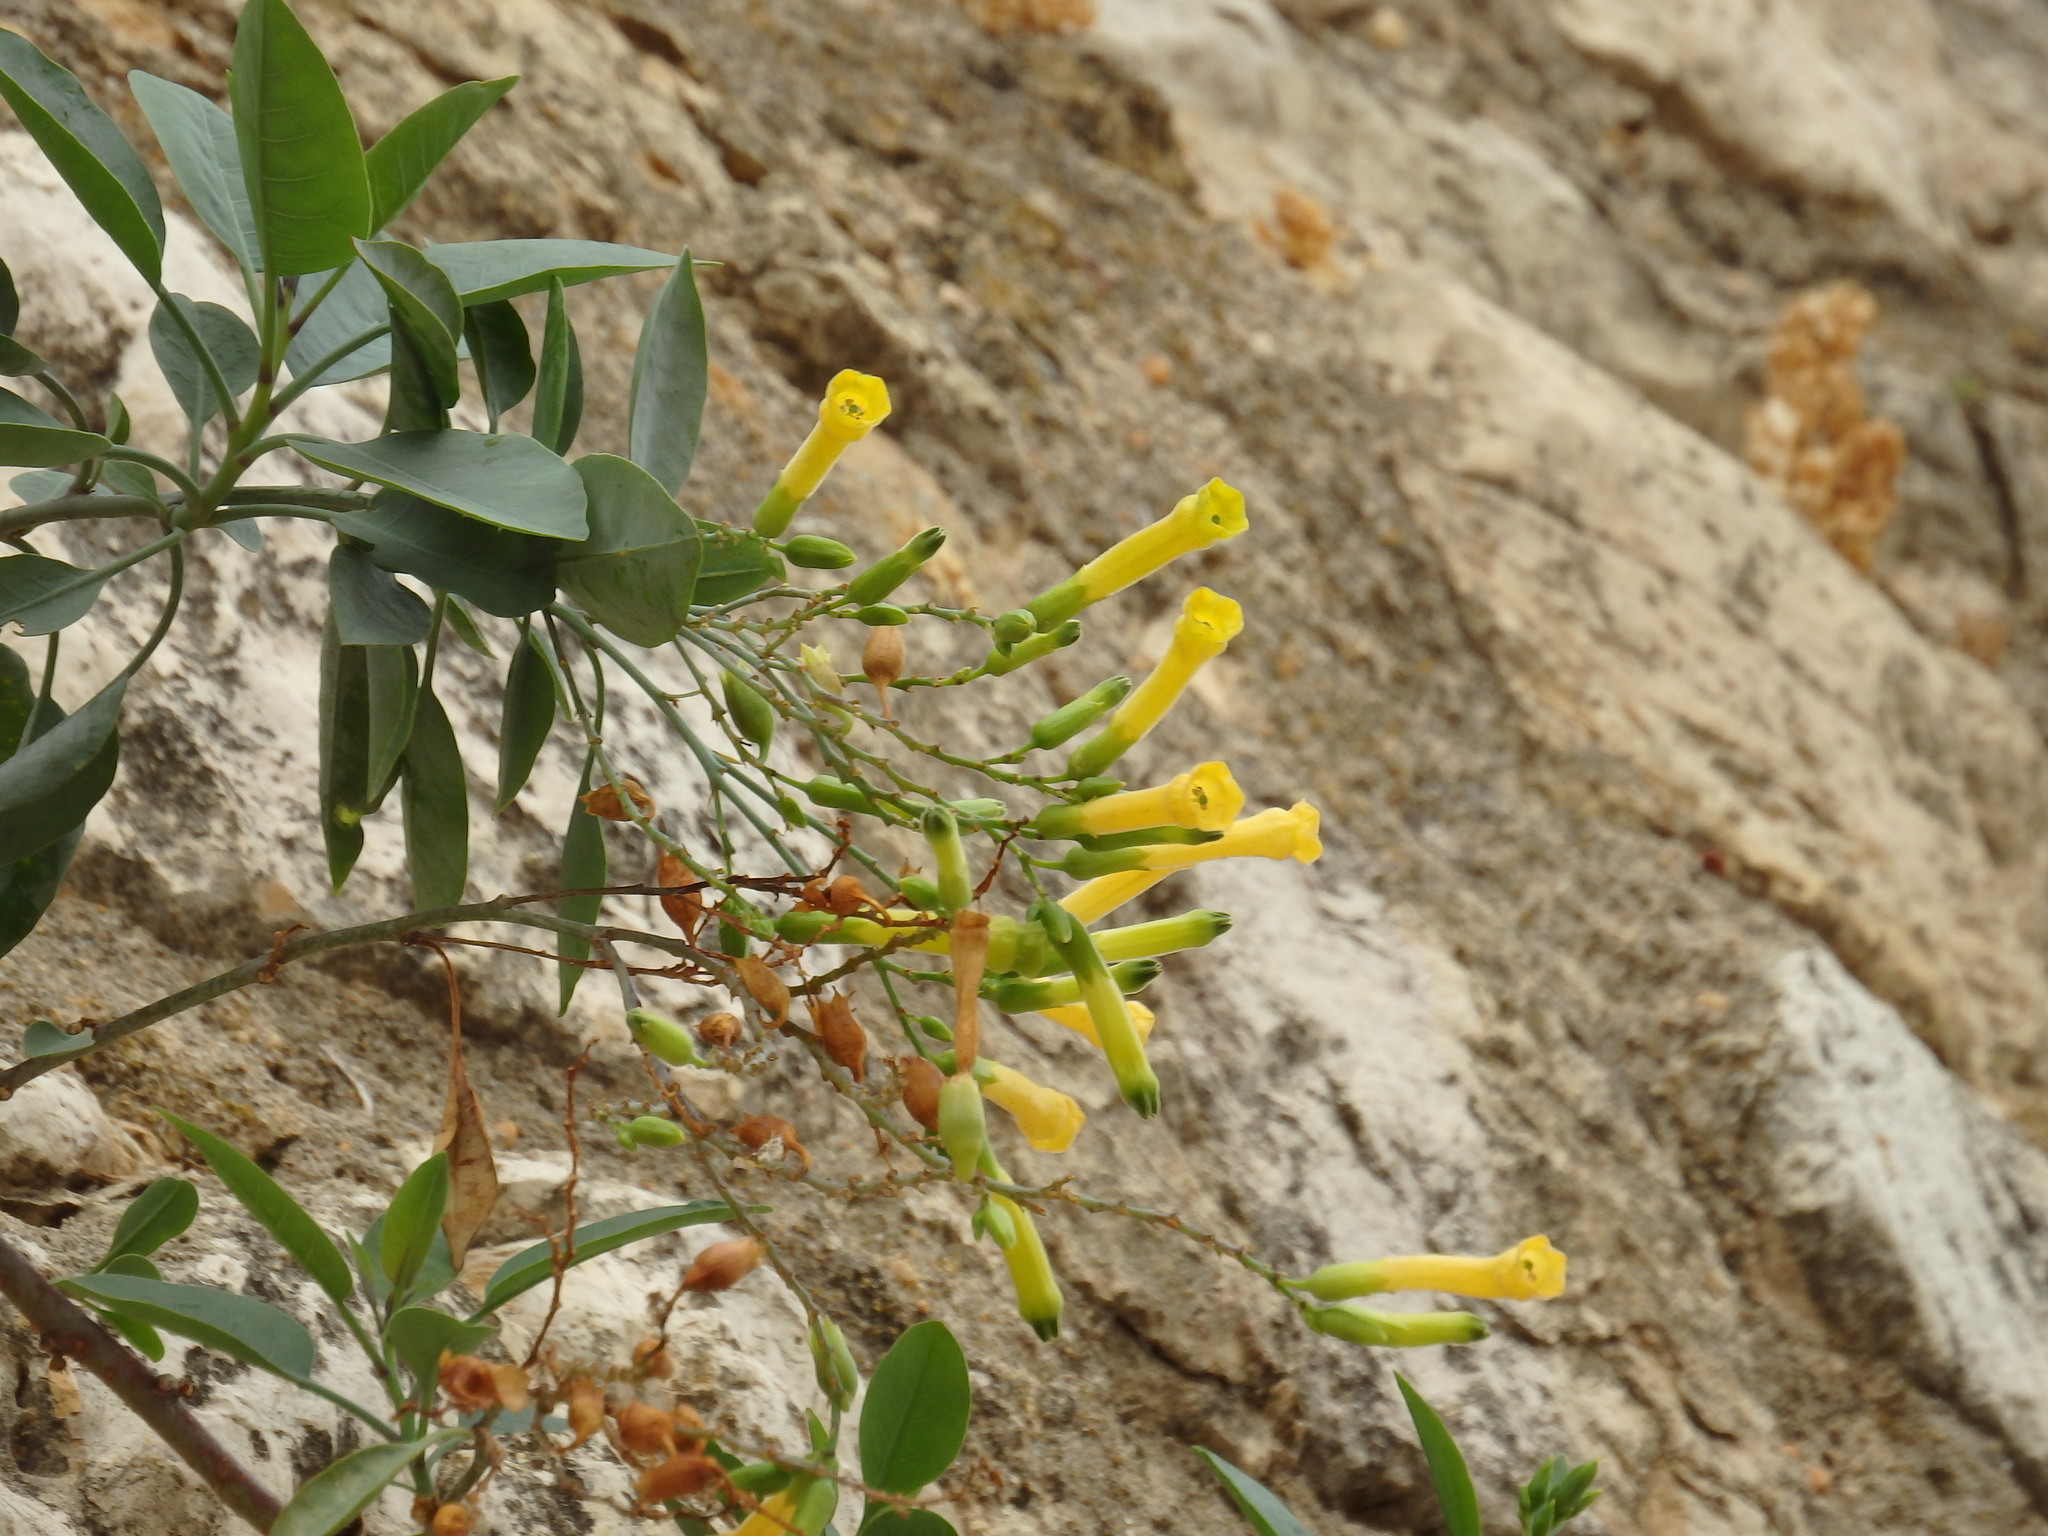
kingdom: Plantae
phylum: Tracheophyta
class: Magnoliopsida
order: Solanales
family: Solanaceae
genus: Nicotiana
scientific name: Nicotiana glauca
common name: Tree tobacco
